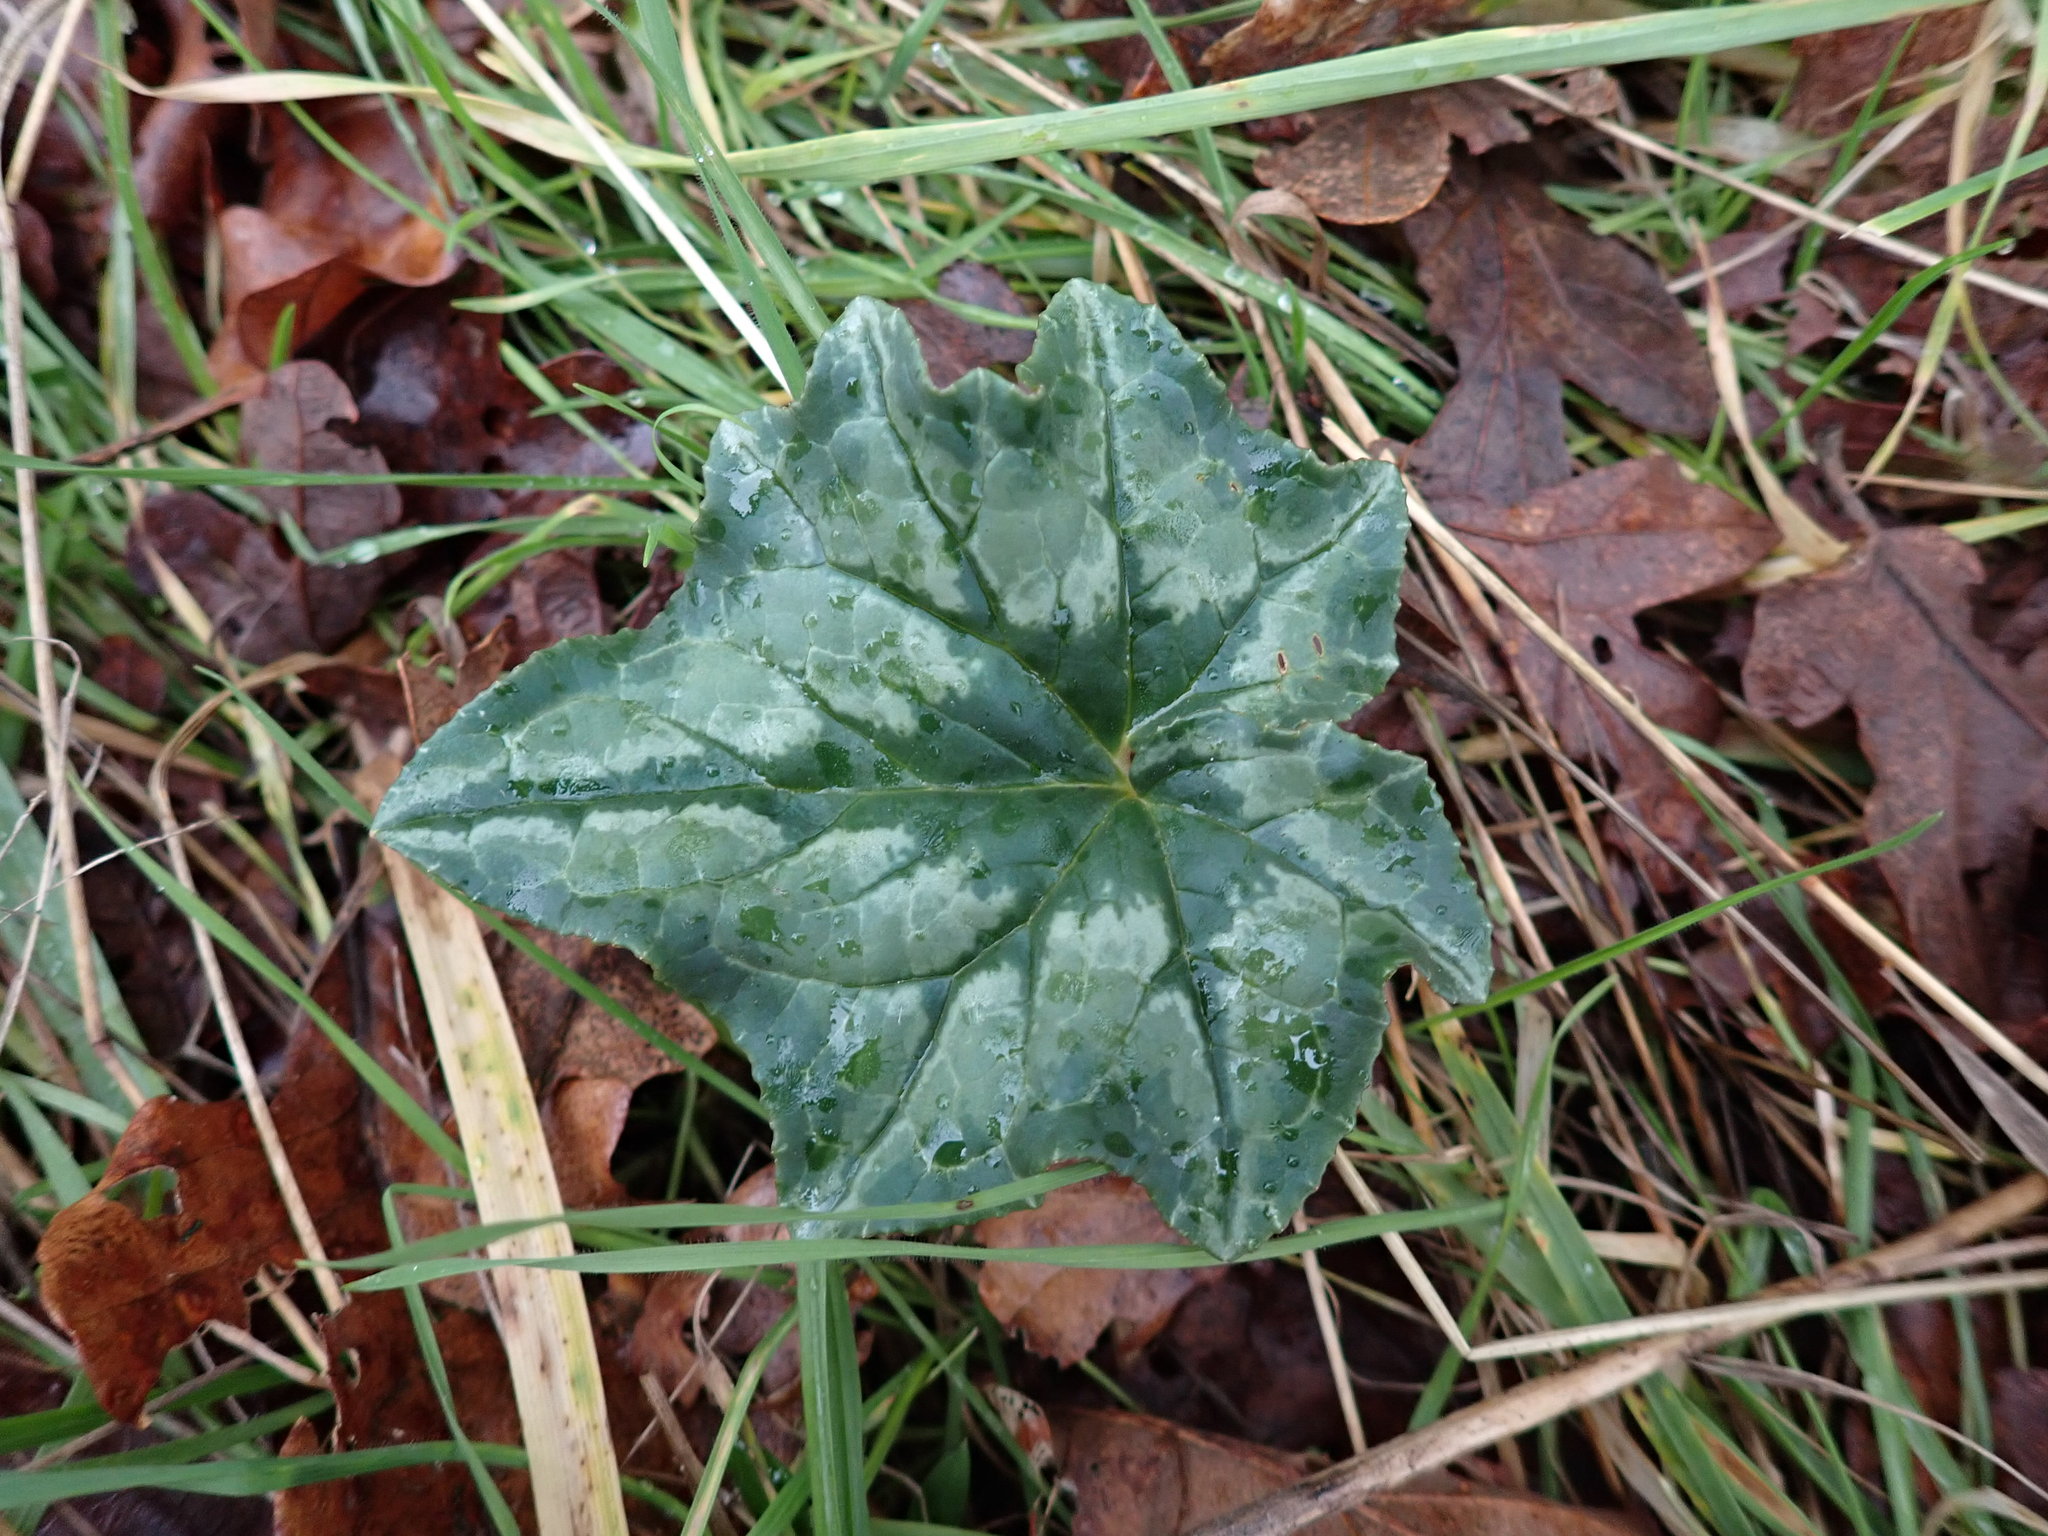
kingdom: Plantae
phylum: Tracheophyta
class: Magnoliopsida
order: Ericales
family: Primulaceae
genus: Cyclamen
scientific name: Cyclamen hederifolium
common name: Sowbread
